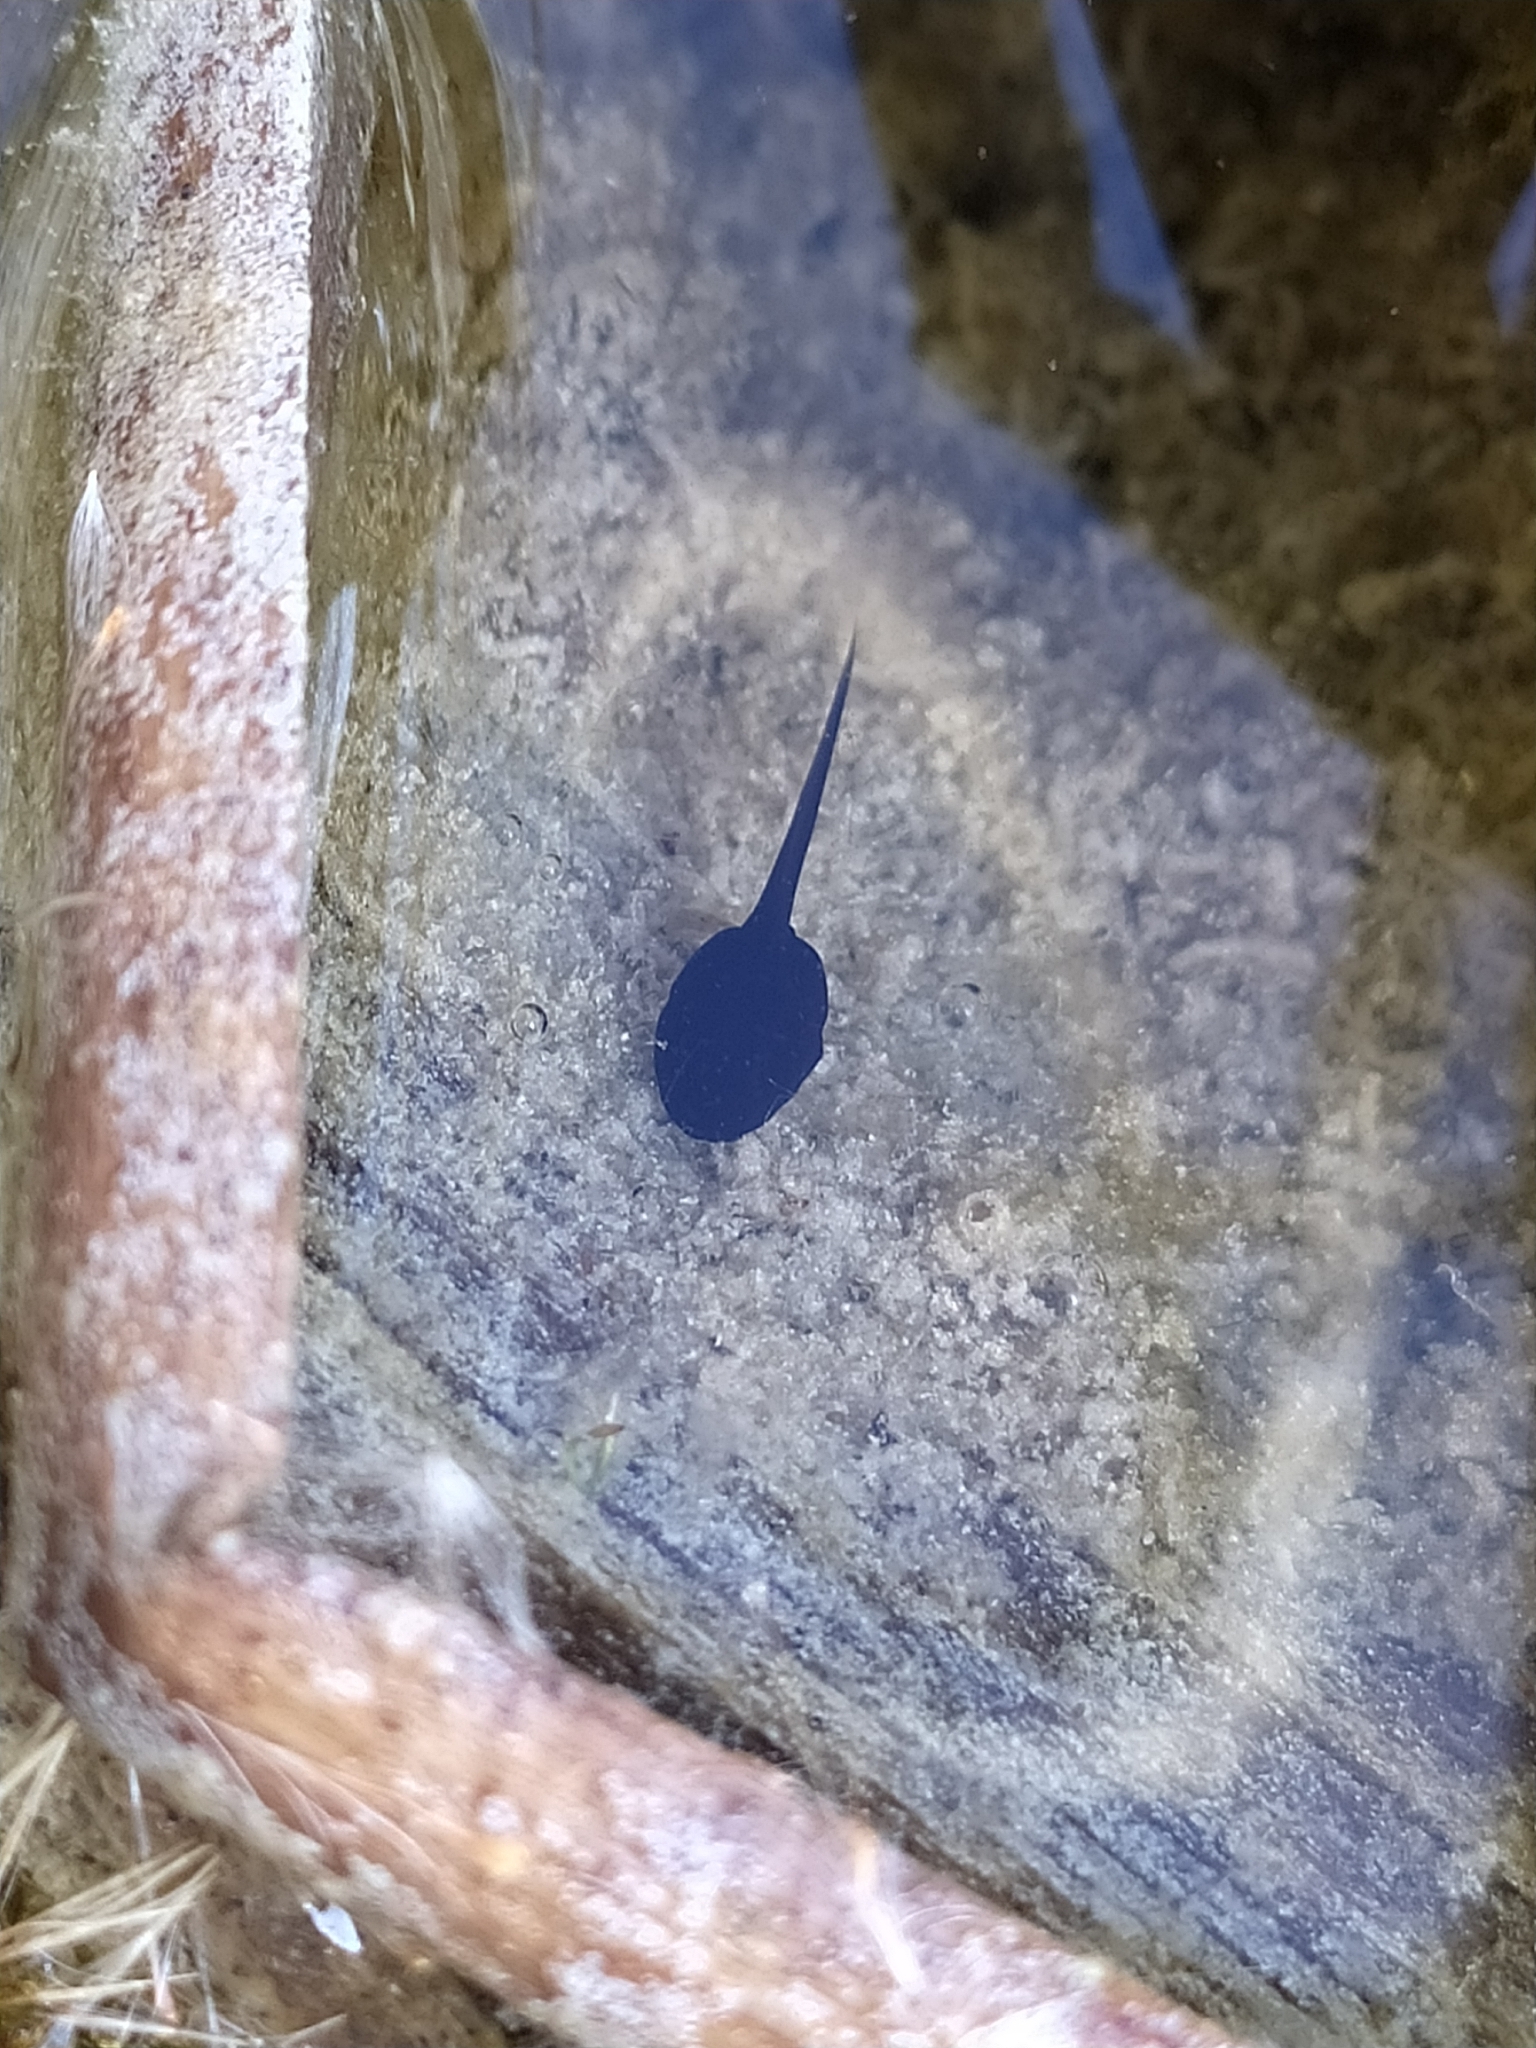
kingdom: Animalia
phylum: Chordata
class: Amphibia
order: Anura
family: Bufonidae
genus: Bufo
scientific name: Bufo bufo
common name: Common toad
